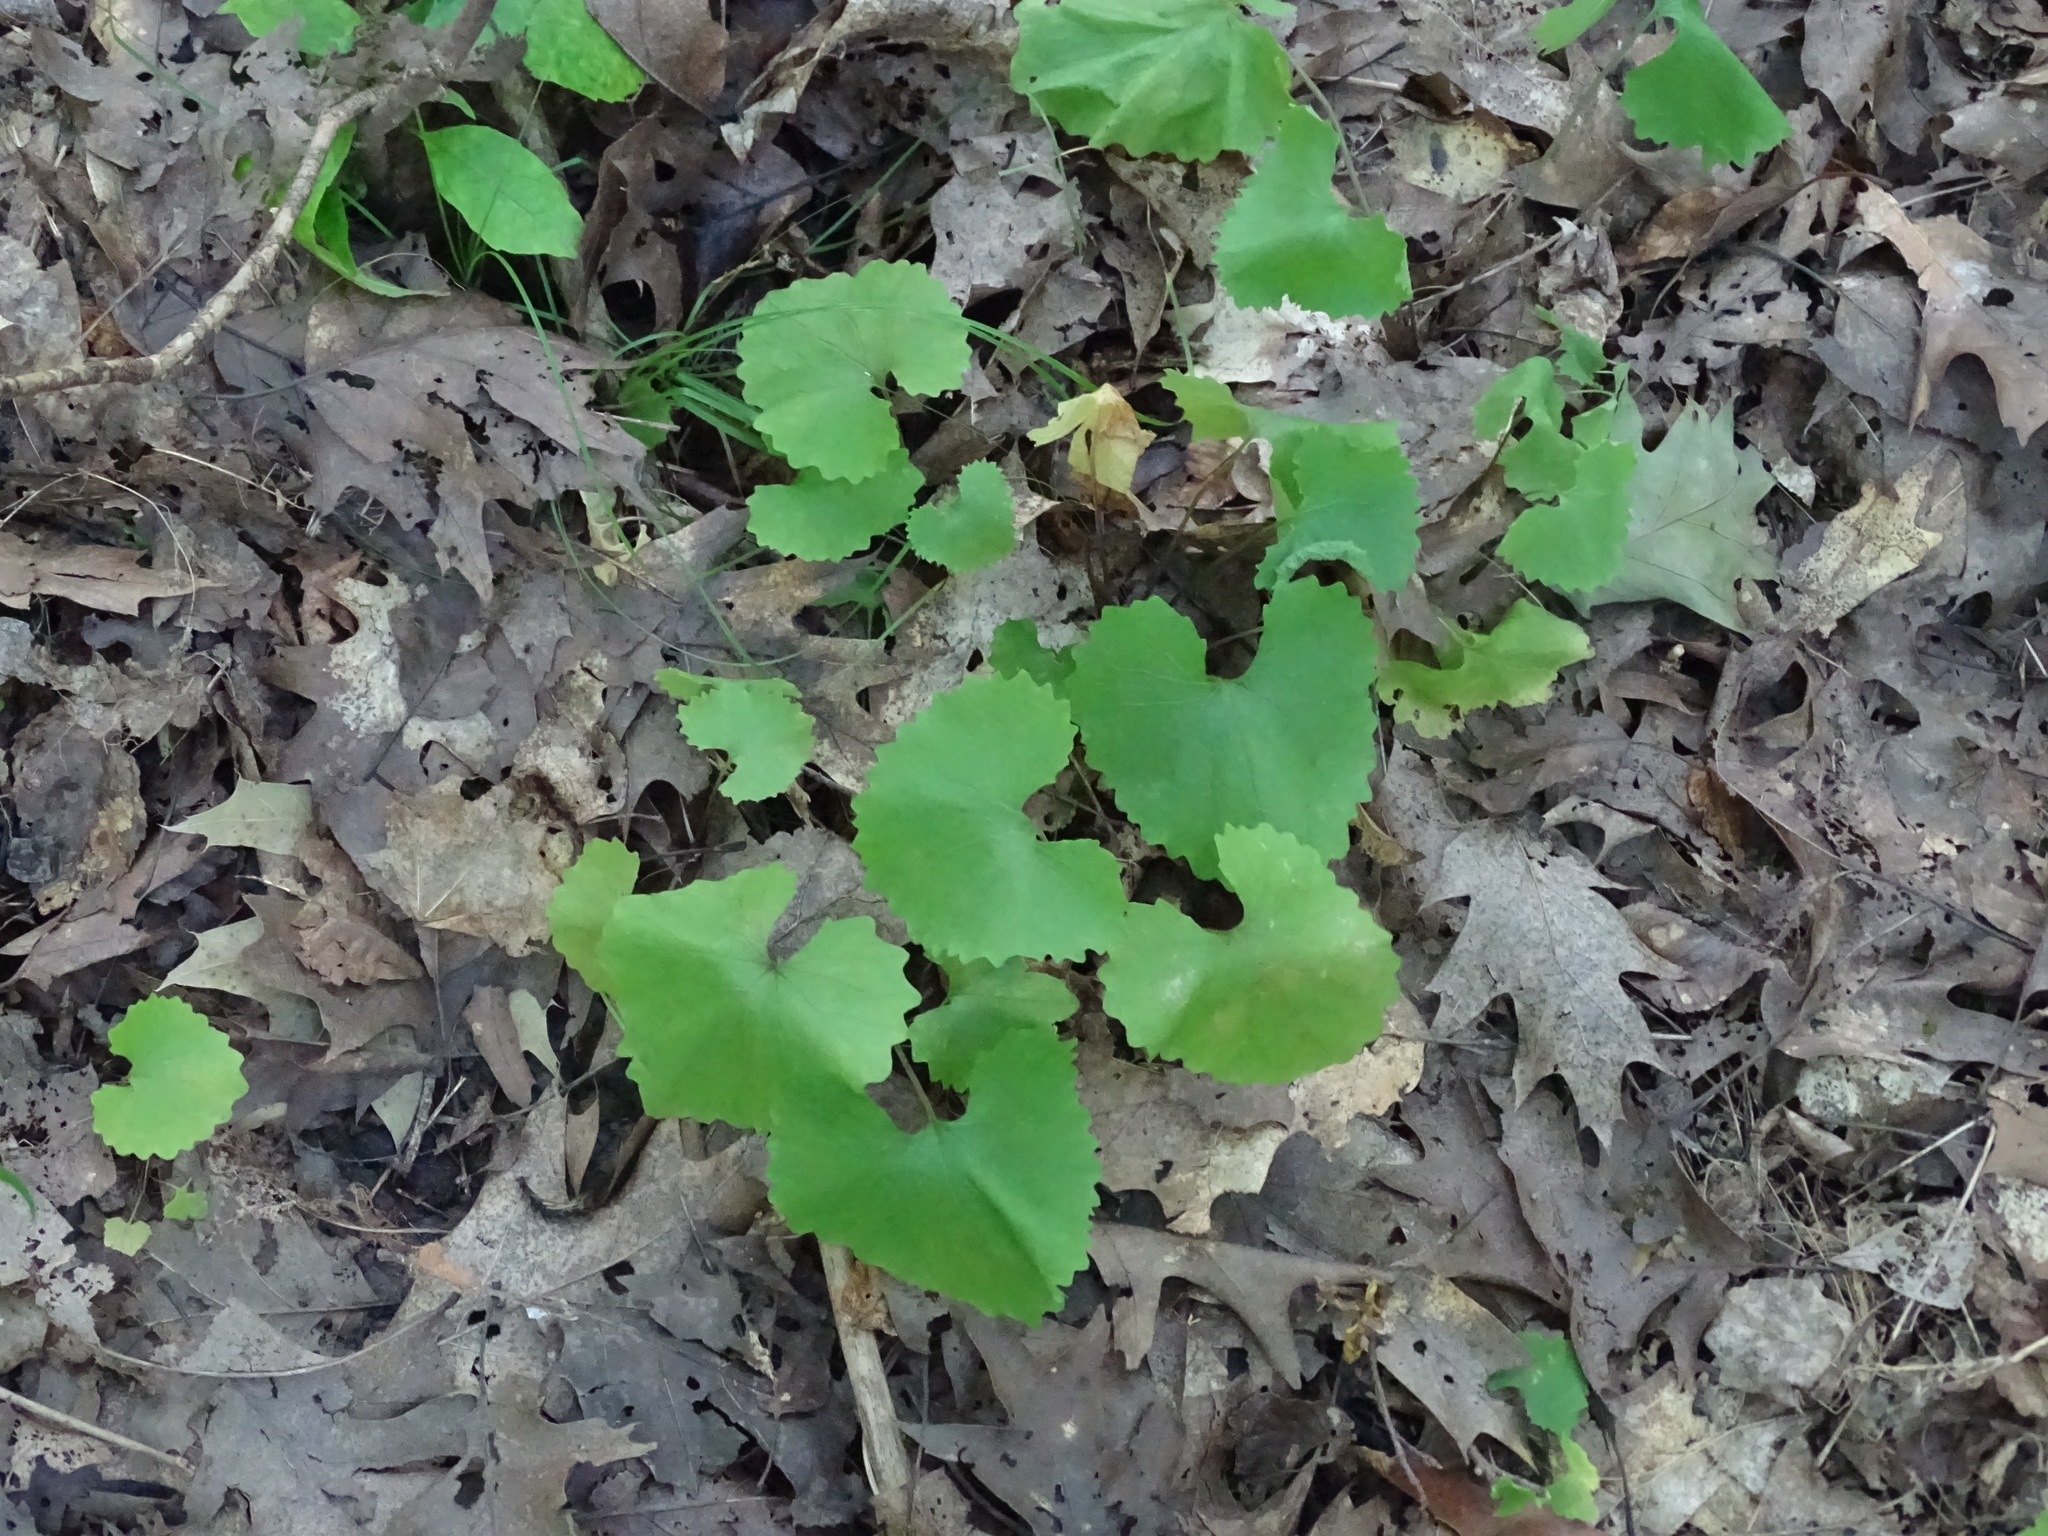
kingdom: Plantae
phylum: Tracheophyta
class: Magnoliopsida
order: Brassicales
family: Brassicaceae
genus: Alliaria
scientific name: Alliaria petiolata
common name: Garlic mustard
